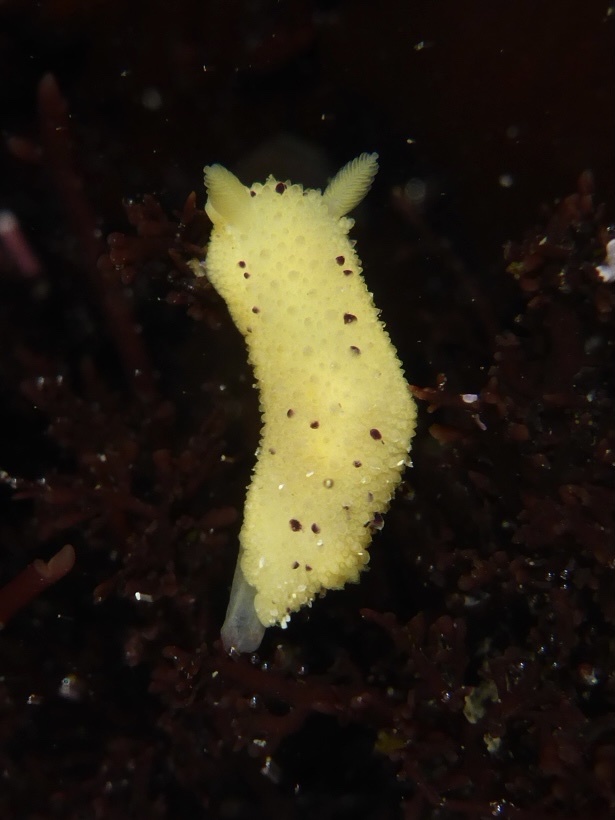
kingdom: Animalia
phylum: Mollusca
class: Gastropoda
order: Nudibranchia
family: Dorididae
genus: Doris
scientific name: Doris montereyensis
